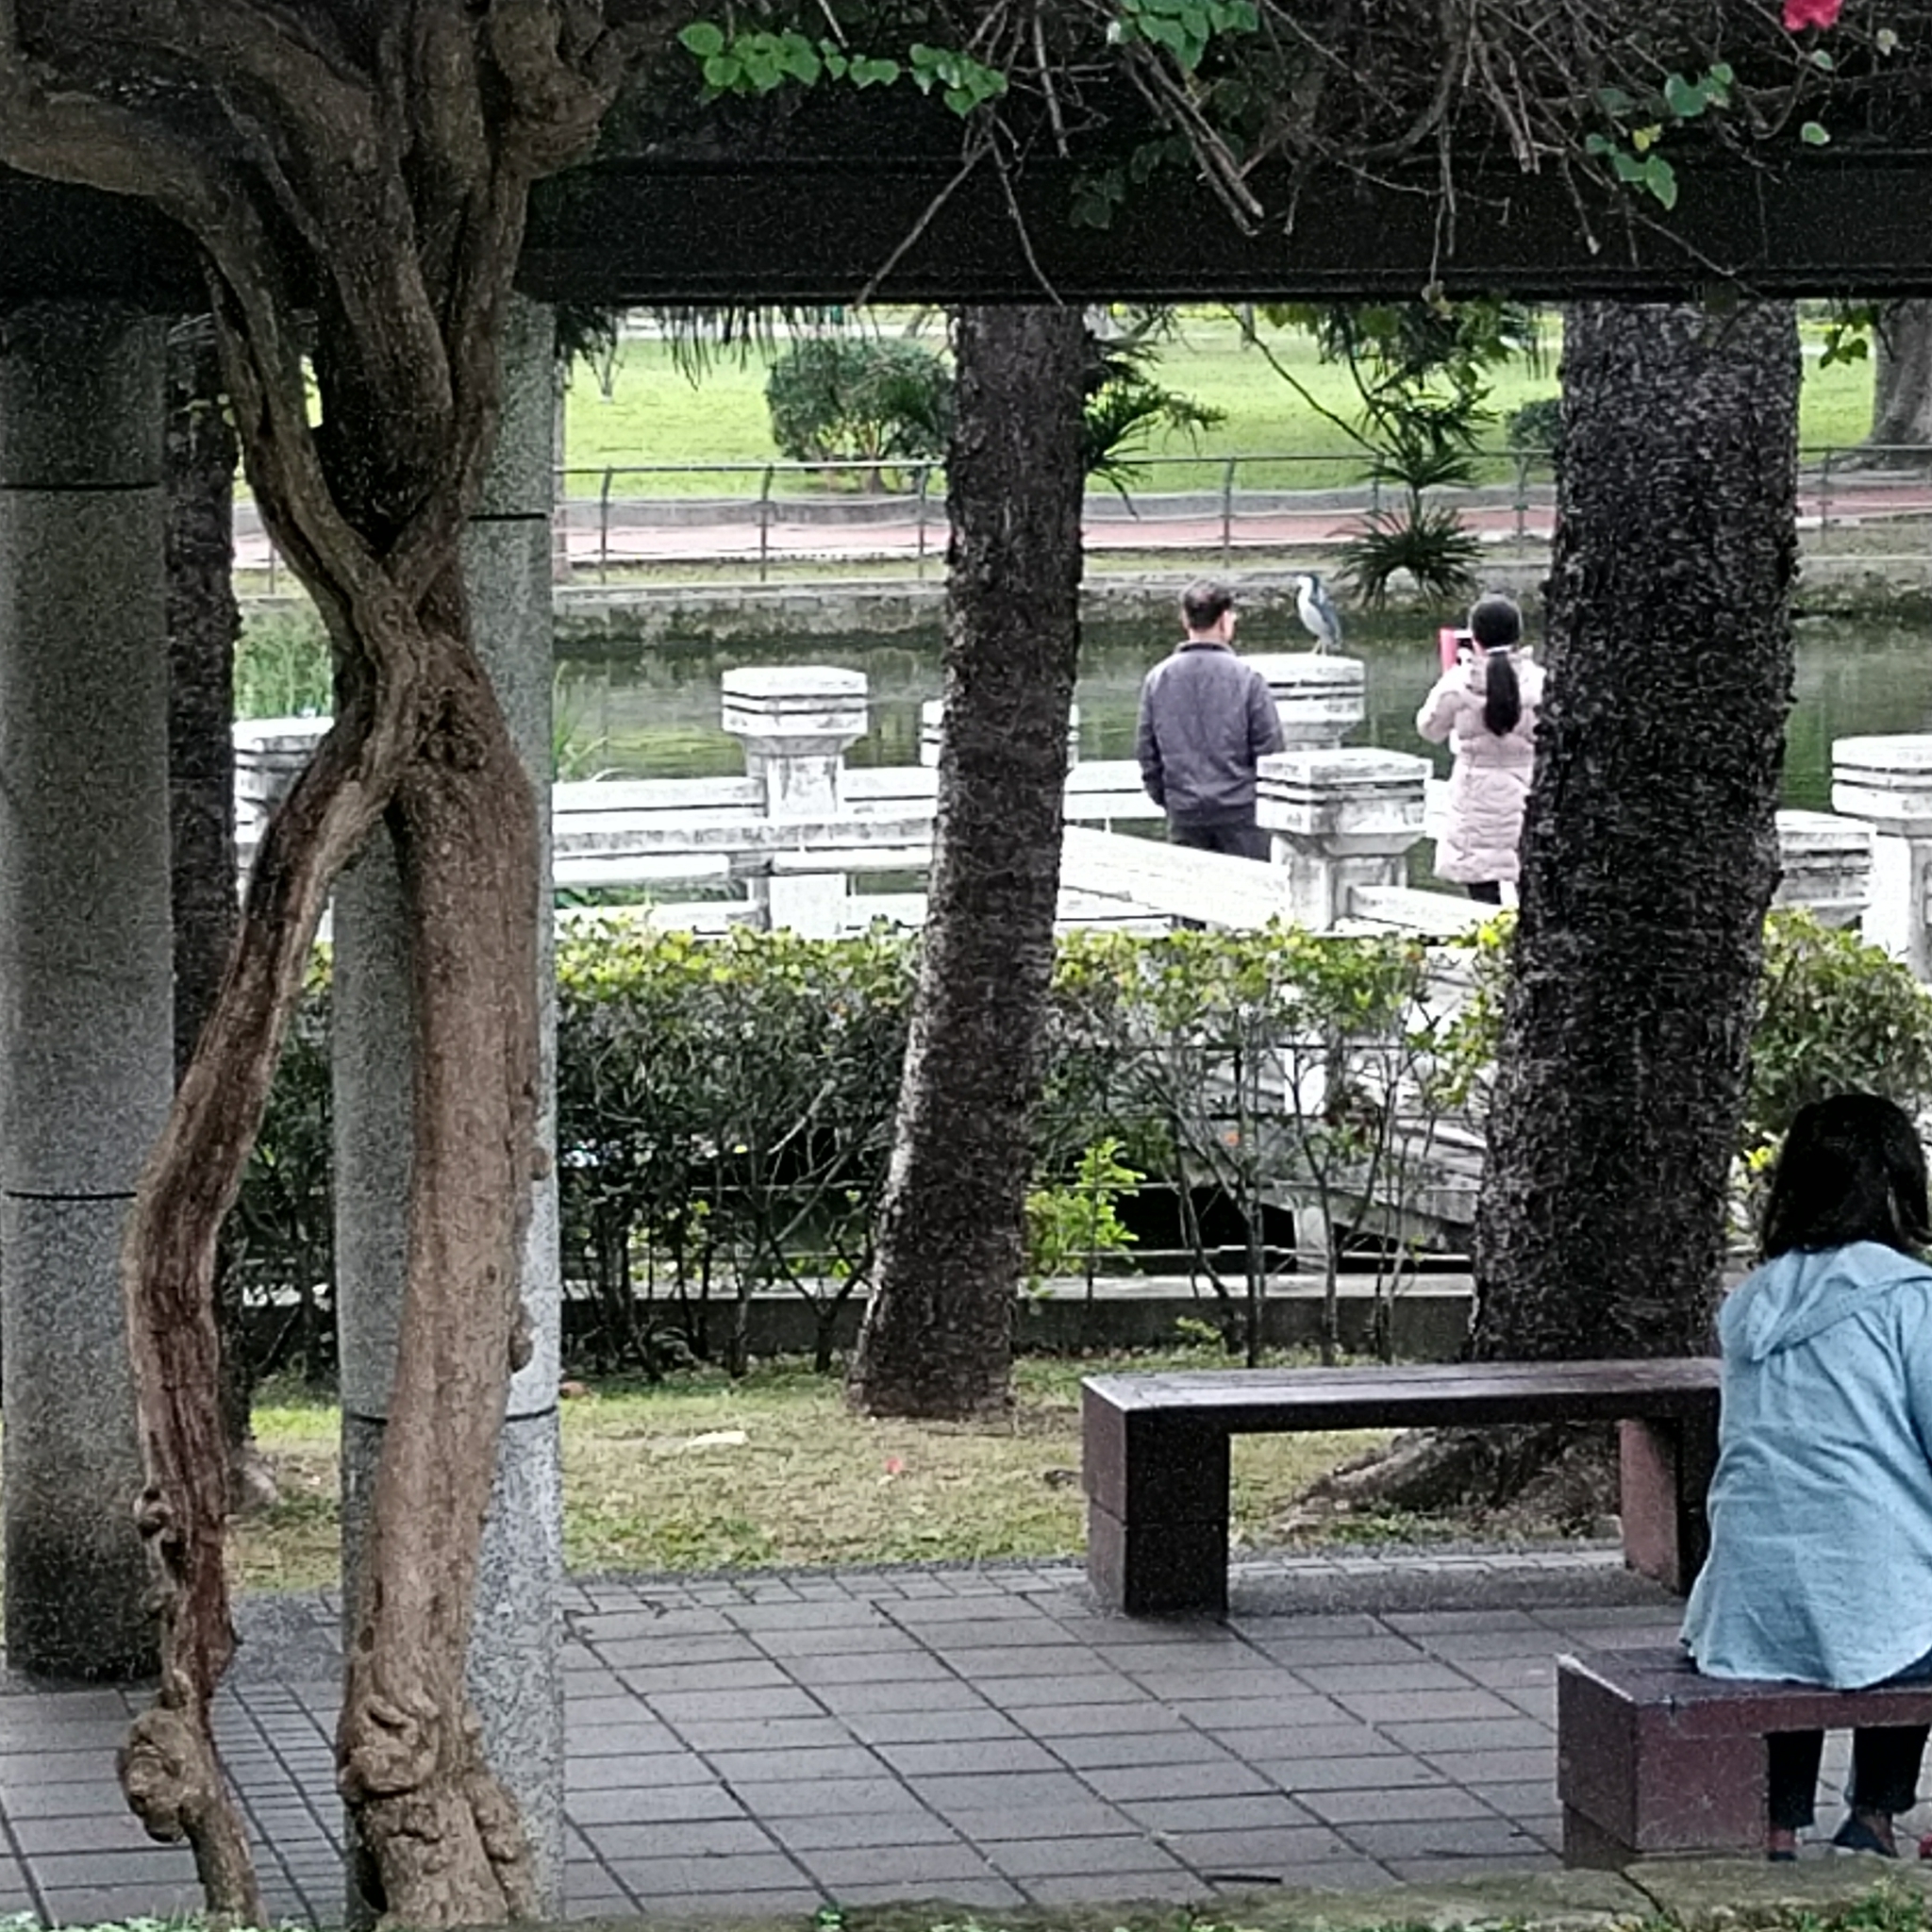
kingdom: Animalia
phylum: Chordata
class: Aves
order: Pelecaniformes
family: Ardeidae
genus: Nycticorax
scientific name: Nycticorax nycticorax
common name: Black-crowned night heron
